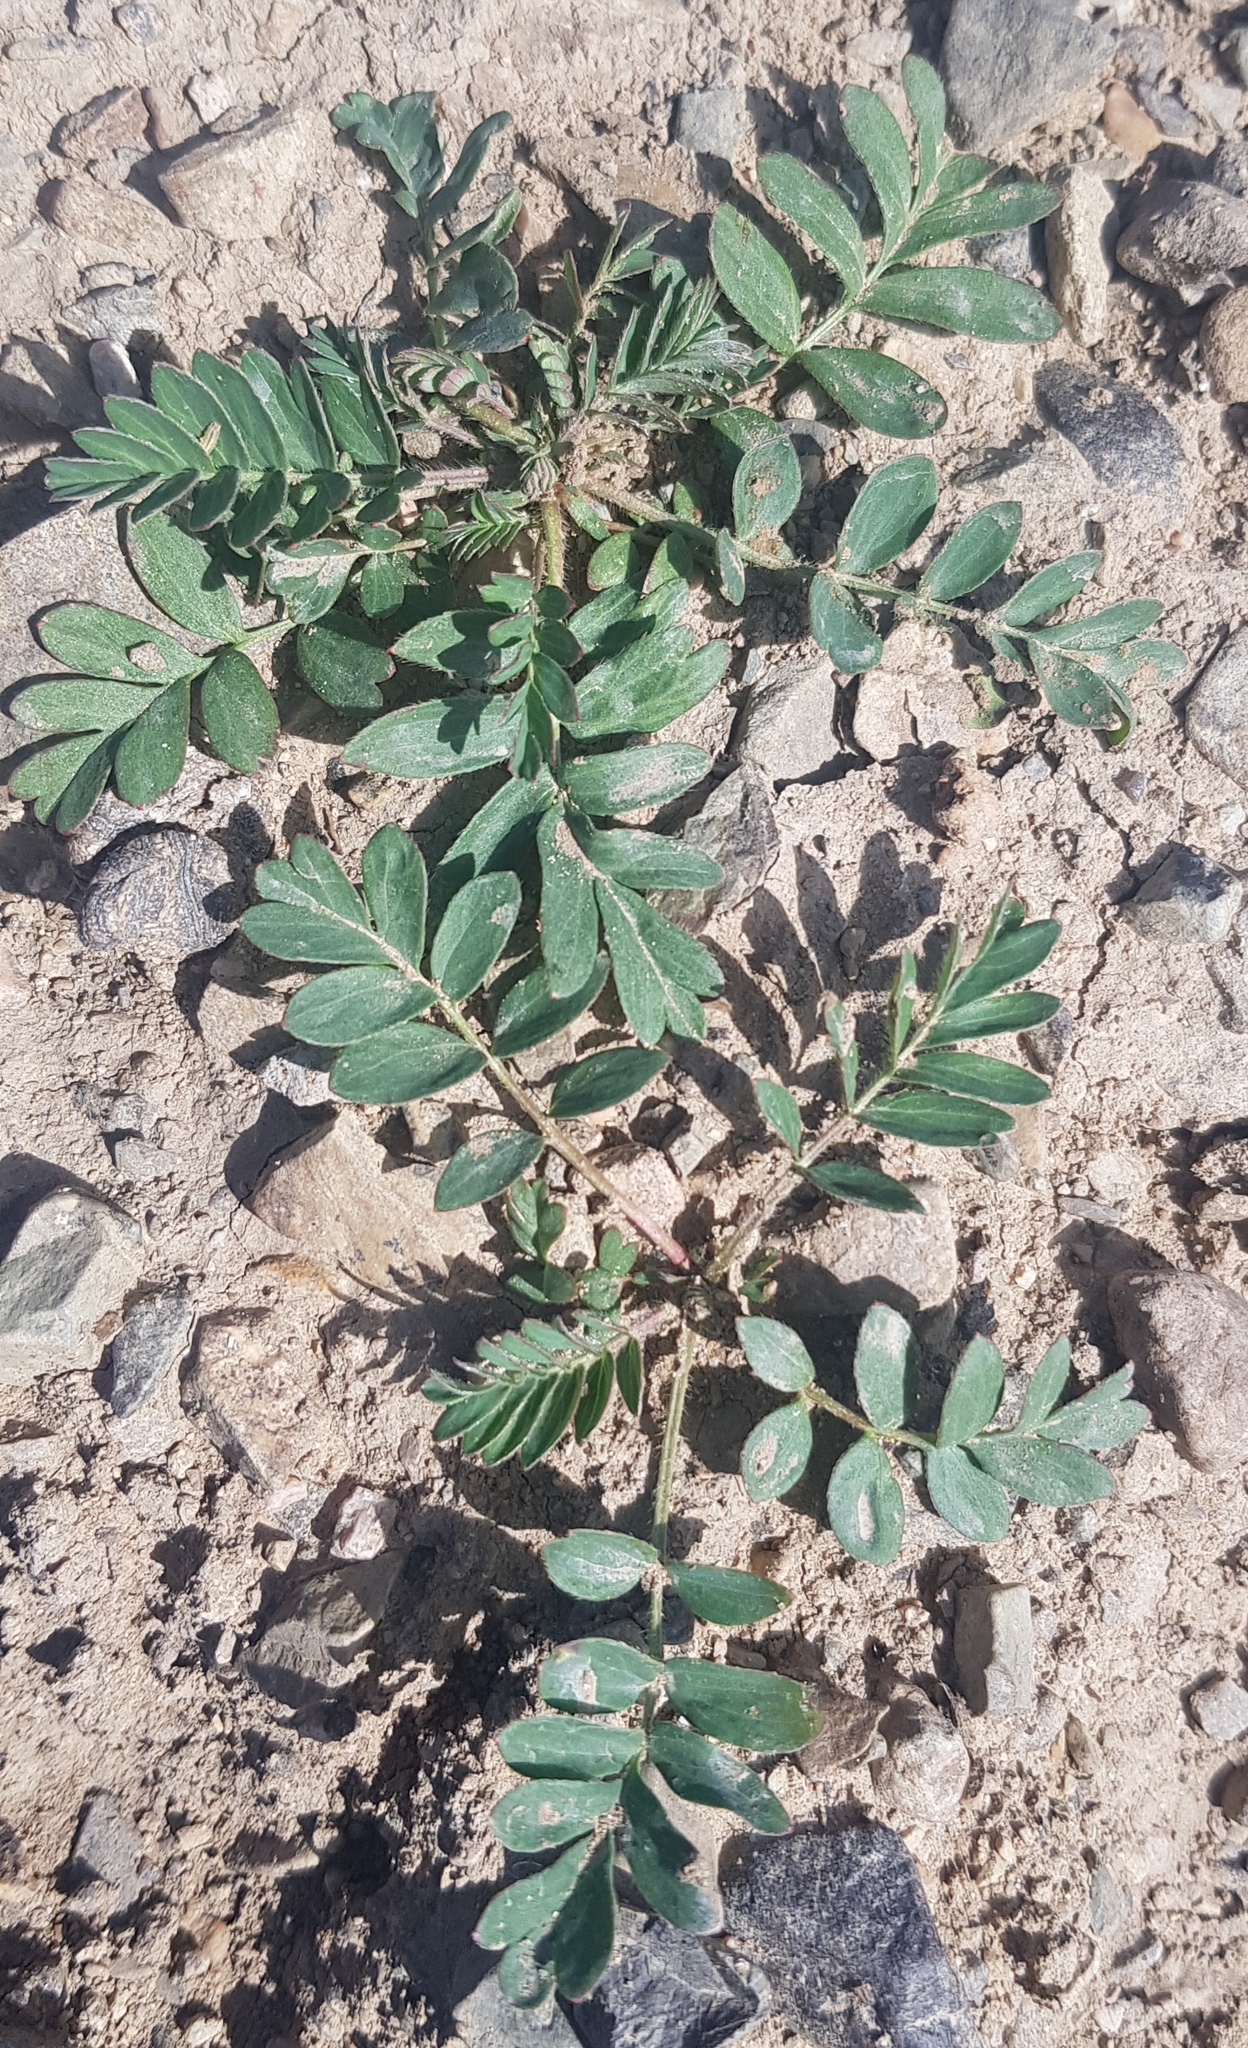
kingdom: Plantae
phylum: Tracheophyta
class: Magnoliopsida
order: Rosales
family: Rosaceae
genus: Sibbaldianthe
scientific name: Sibbaldianthe bifurca
